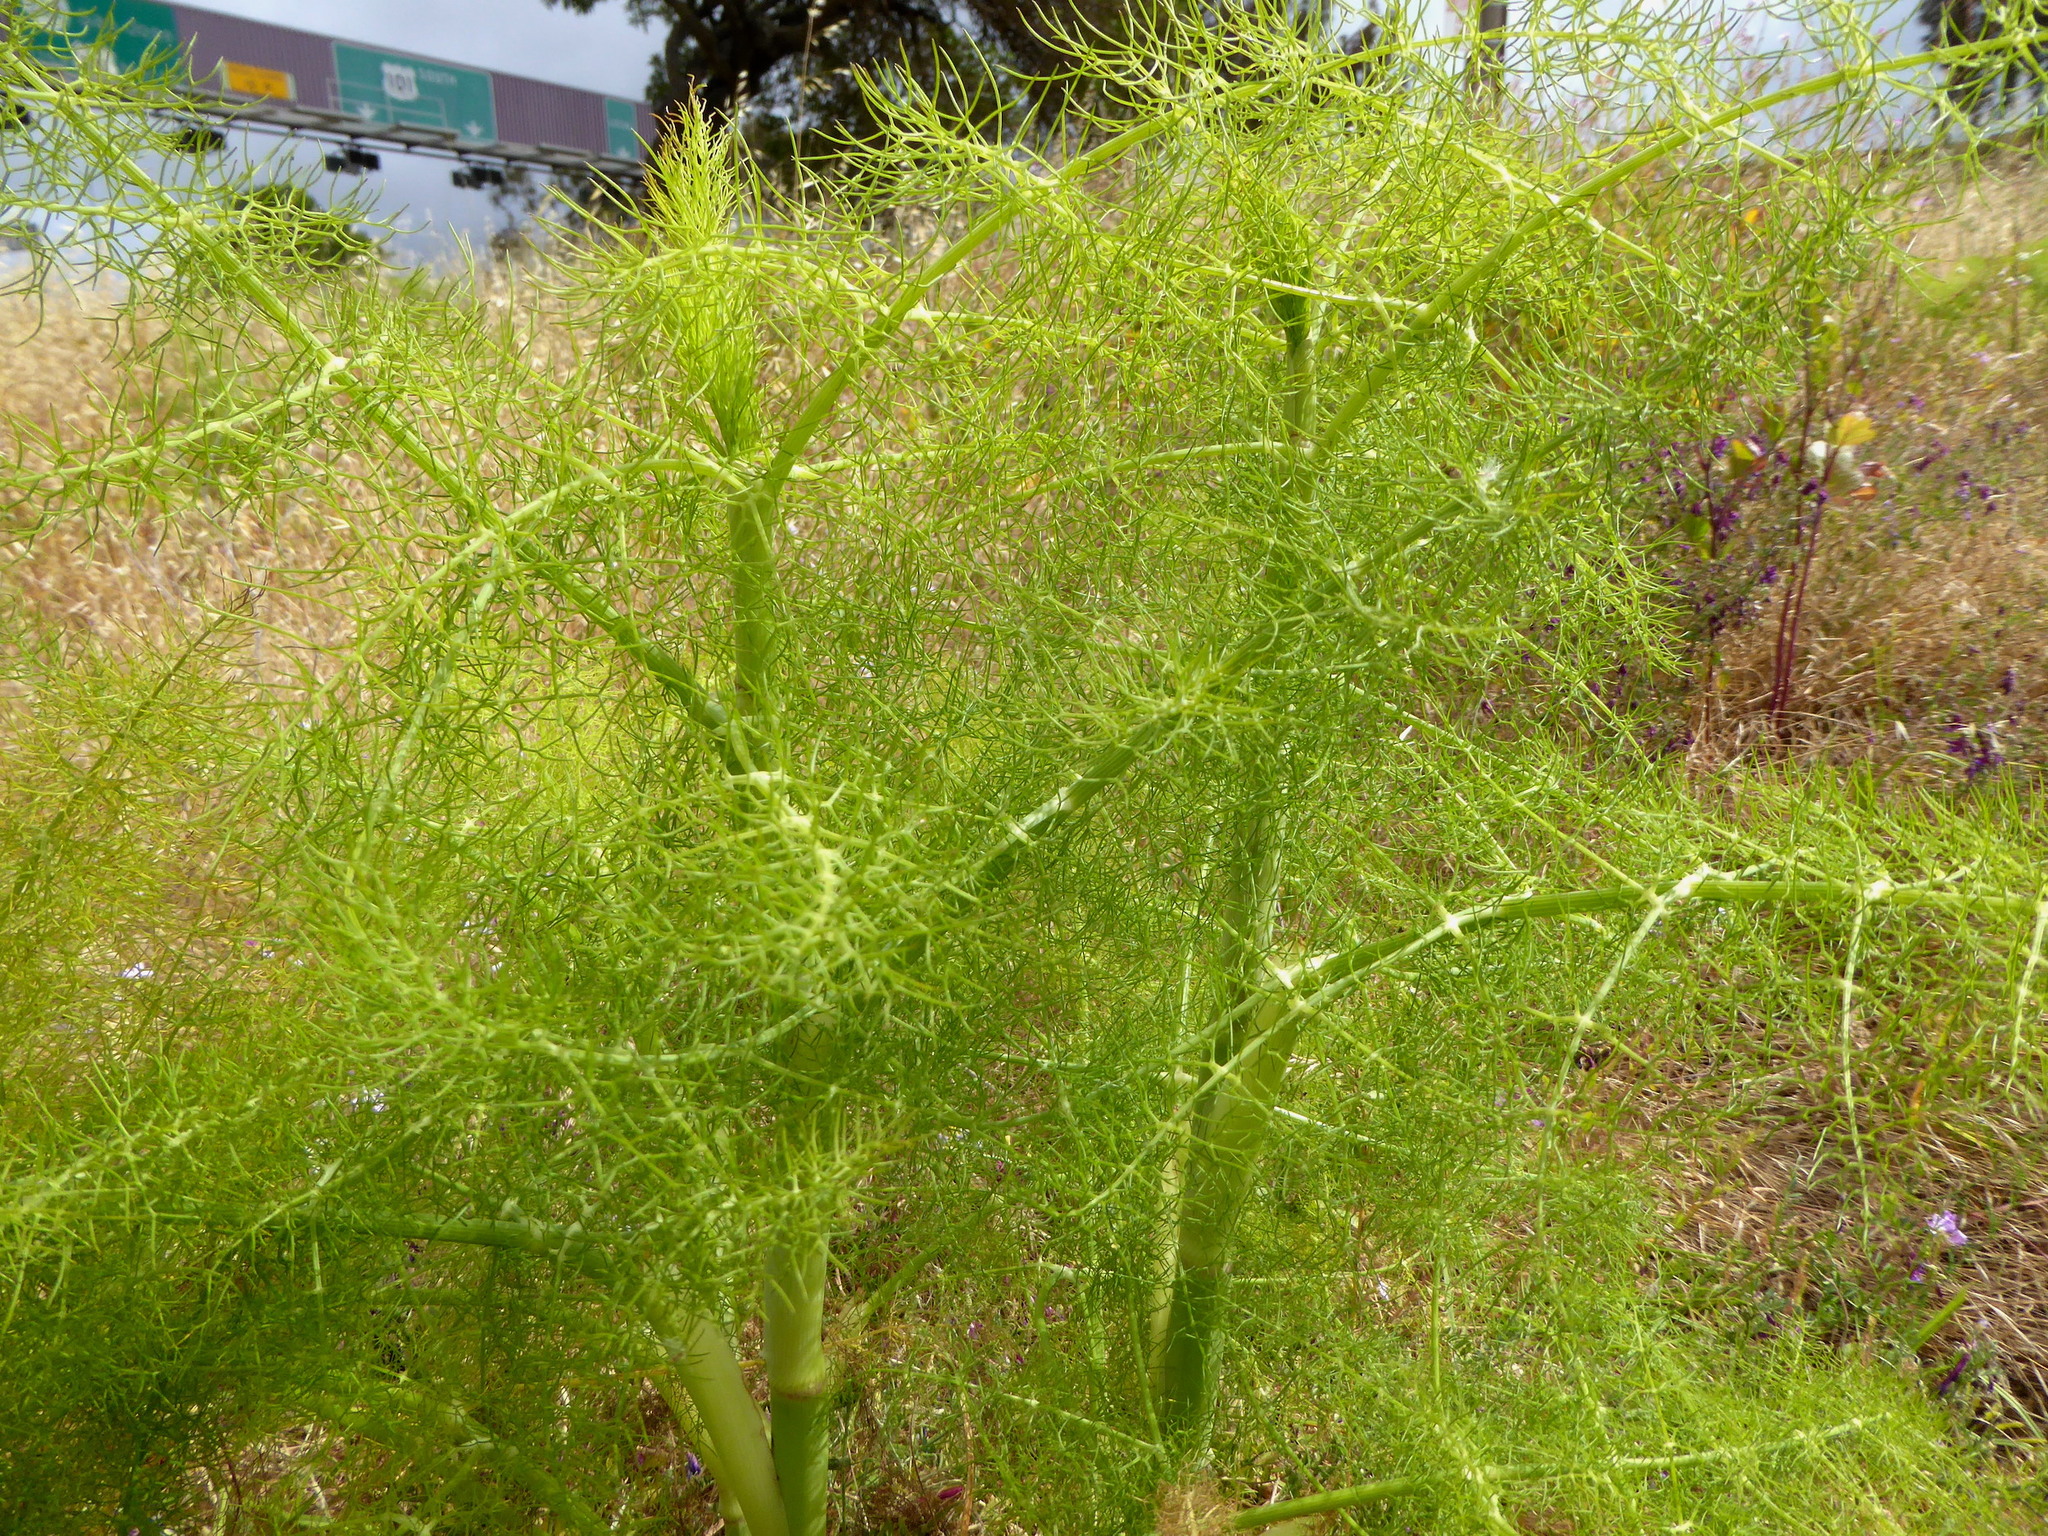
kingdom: Plantae
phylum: Tracheophyta
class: Magnoliopsida
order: Apiales
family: Apiaceae
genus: Foeniculum
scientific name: Foeniculum vulgare
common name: Fennel
